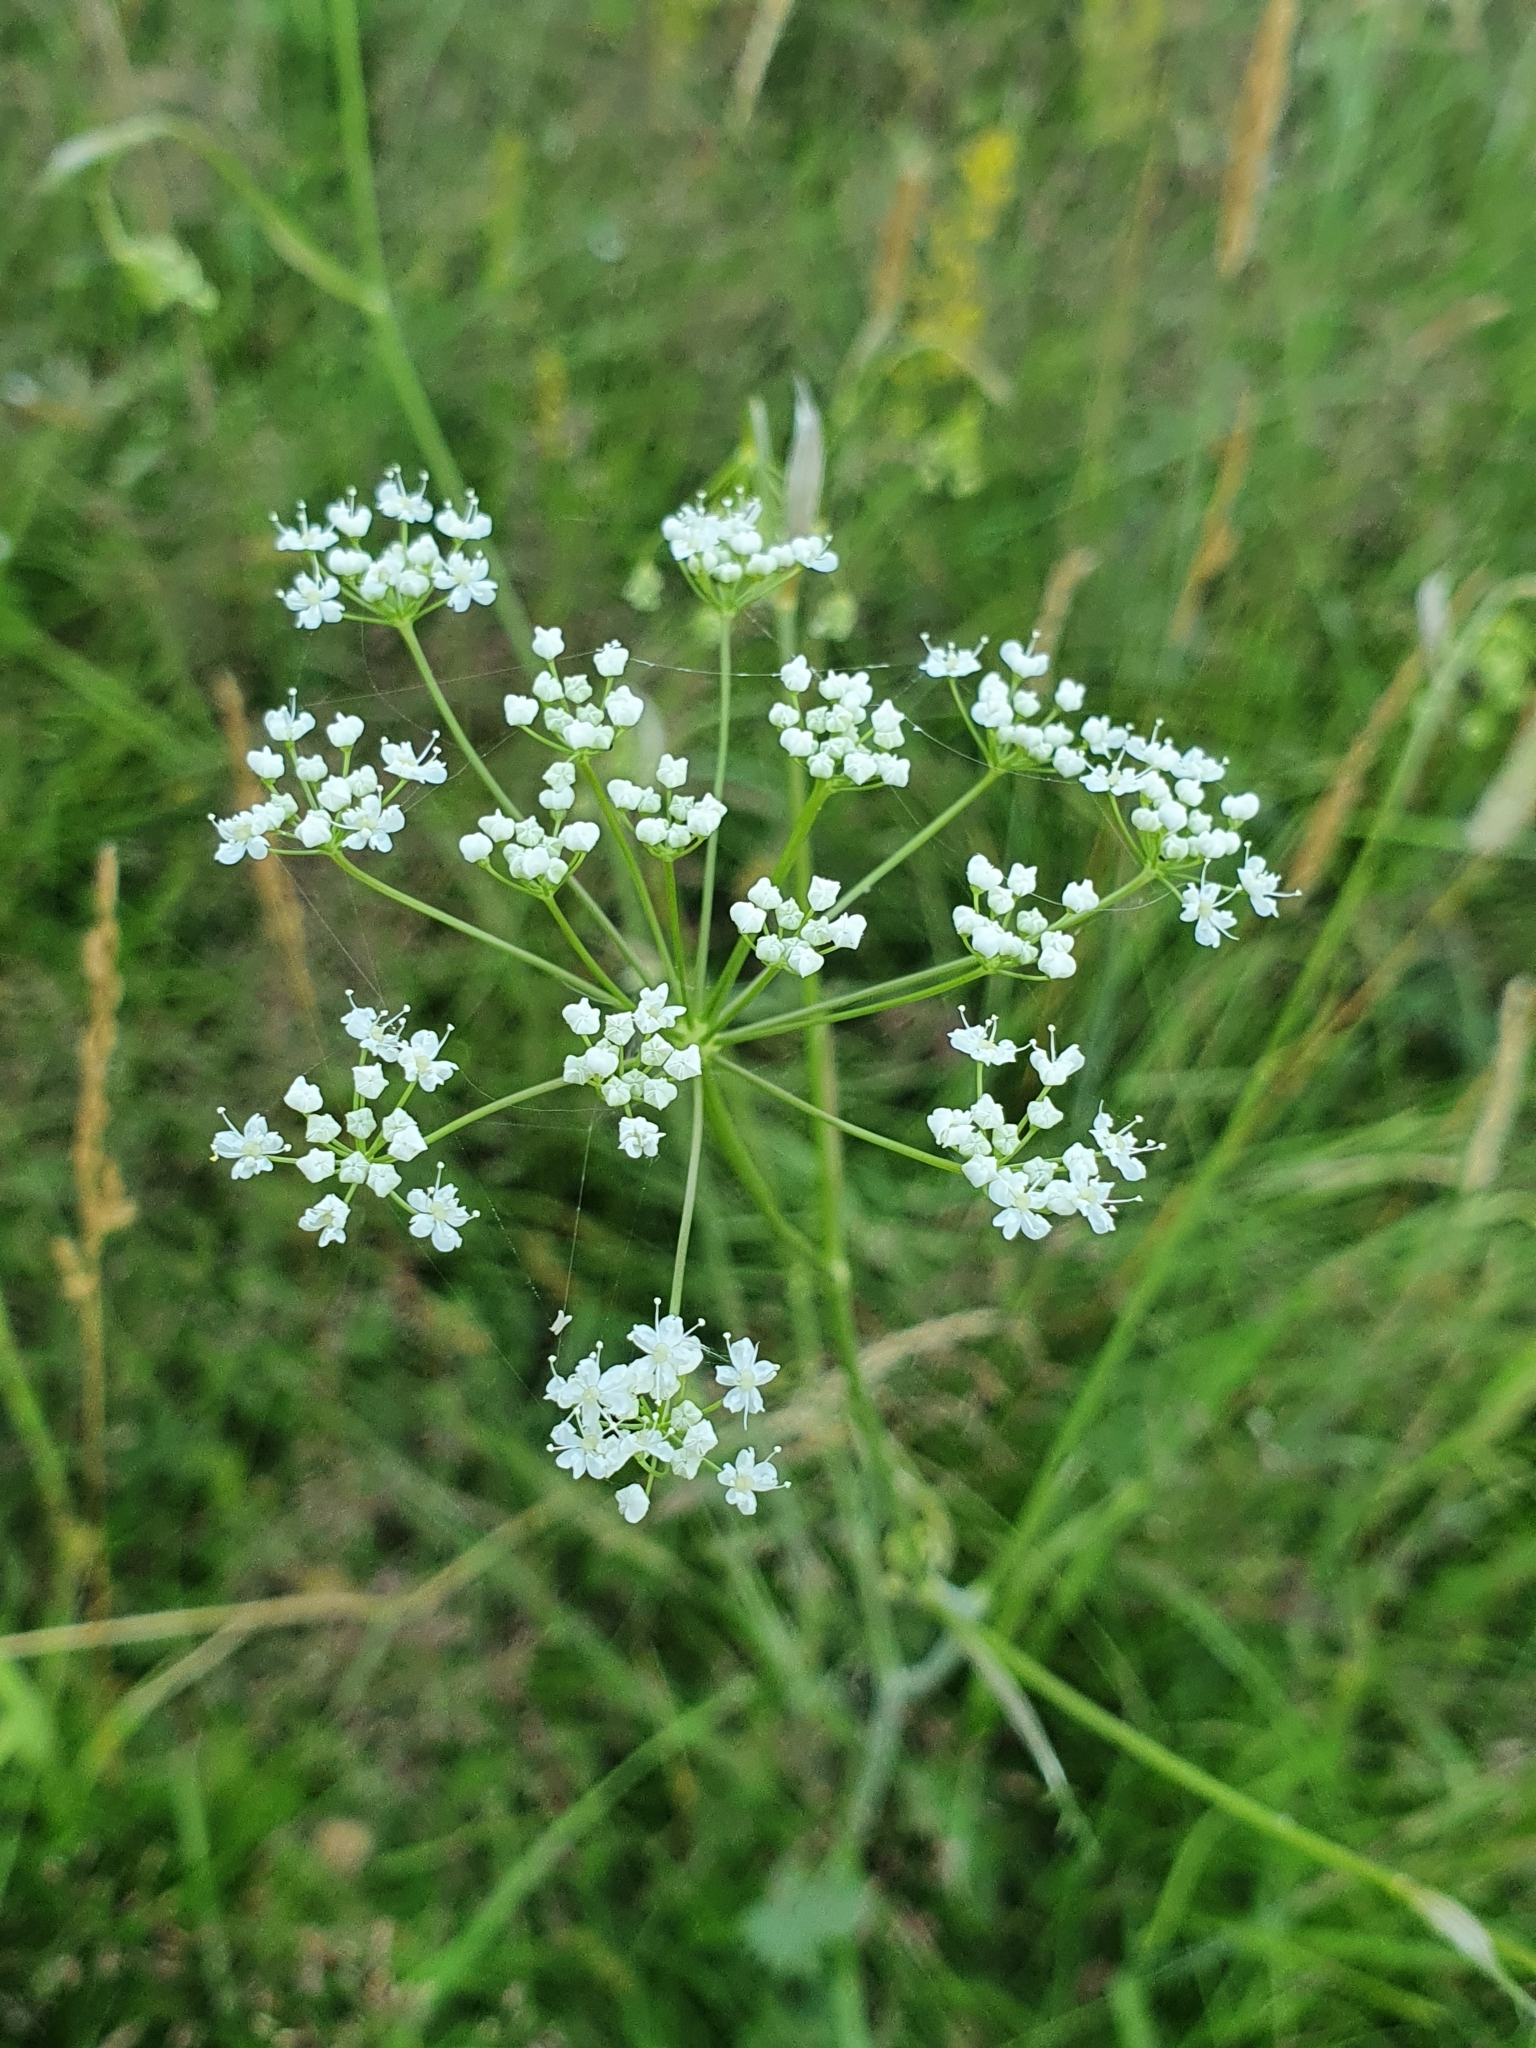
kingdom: Plantae
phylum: Tracheophyta
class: Magnoliopsida
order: Apiales
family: Apiaceae
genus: Pimpinella
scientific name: Pimpinella saxifraga
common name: Burnet-saxifrage
